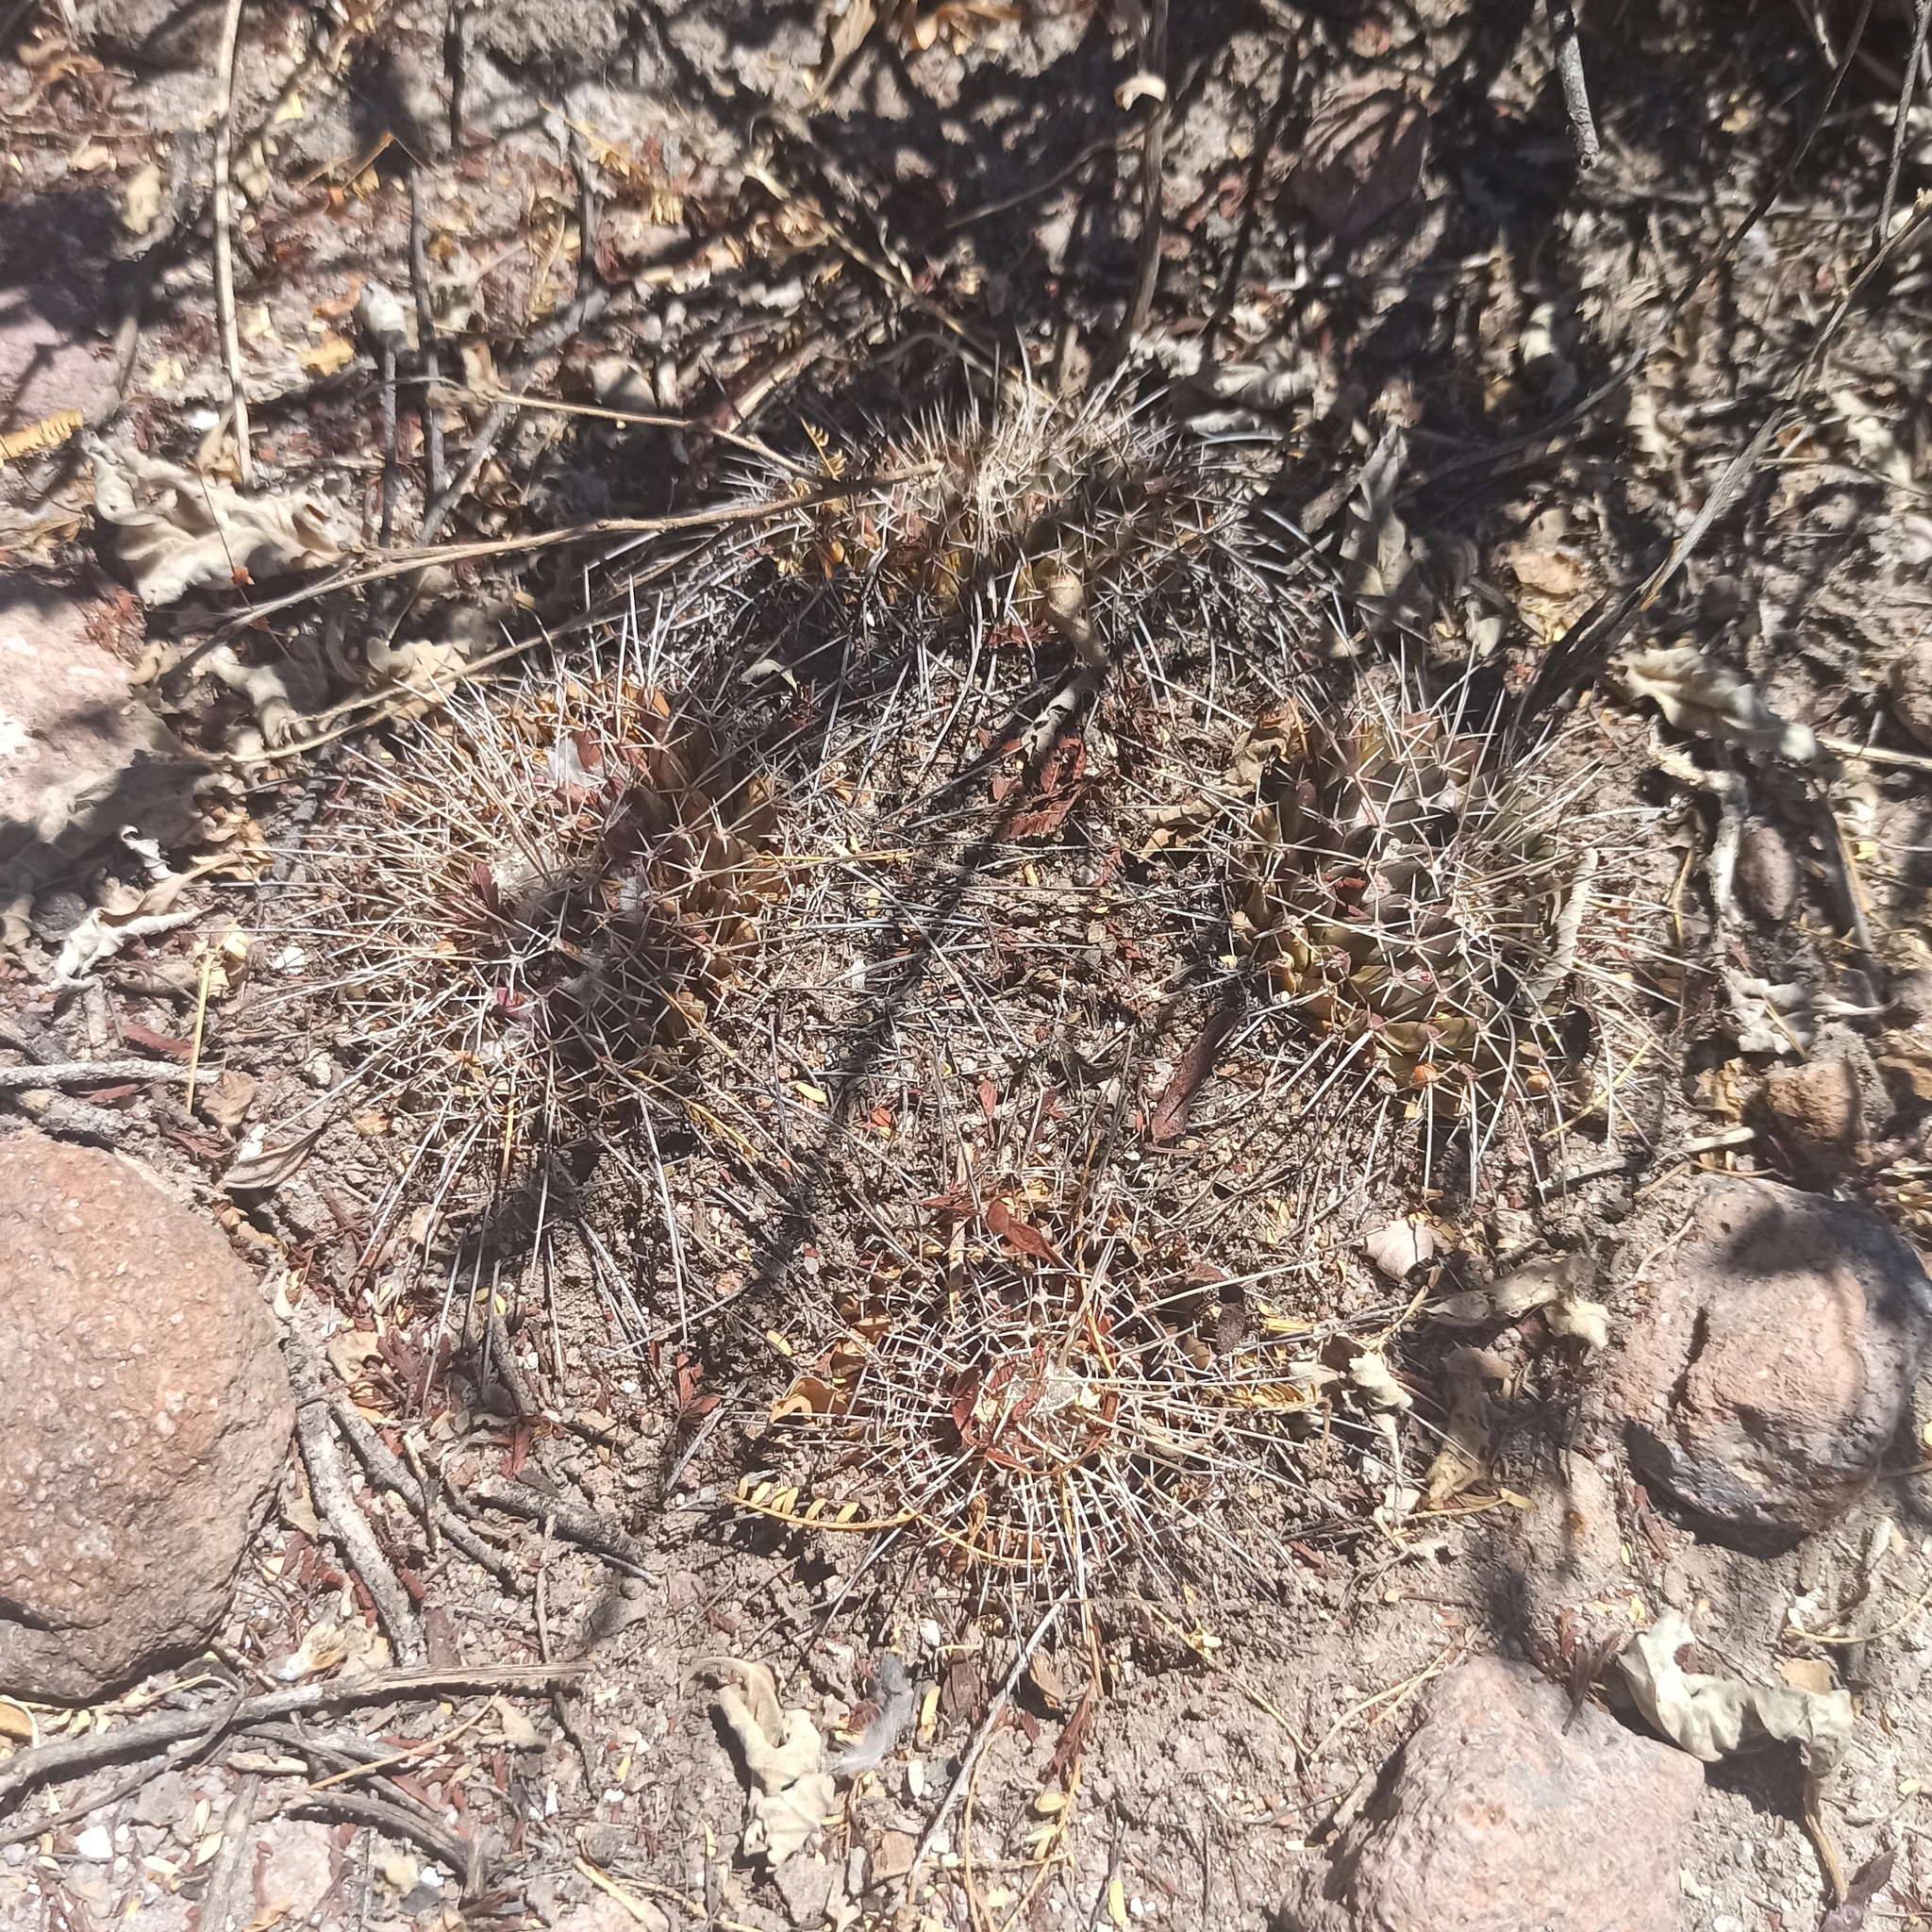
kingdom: Plantae
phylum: Tracheophyta
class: Magnoliopsida
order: Caryophyllales
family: Cactaceae
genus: Mammillaria
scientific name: Mammillaria magnimamma
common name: Mexican pincushion
